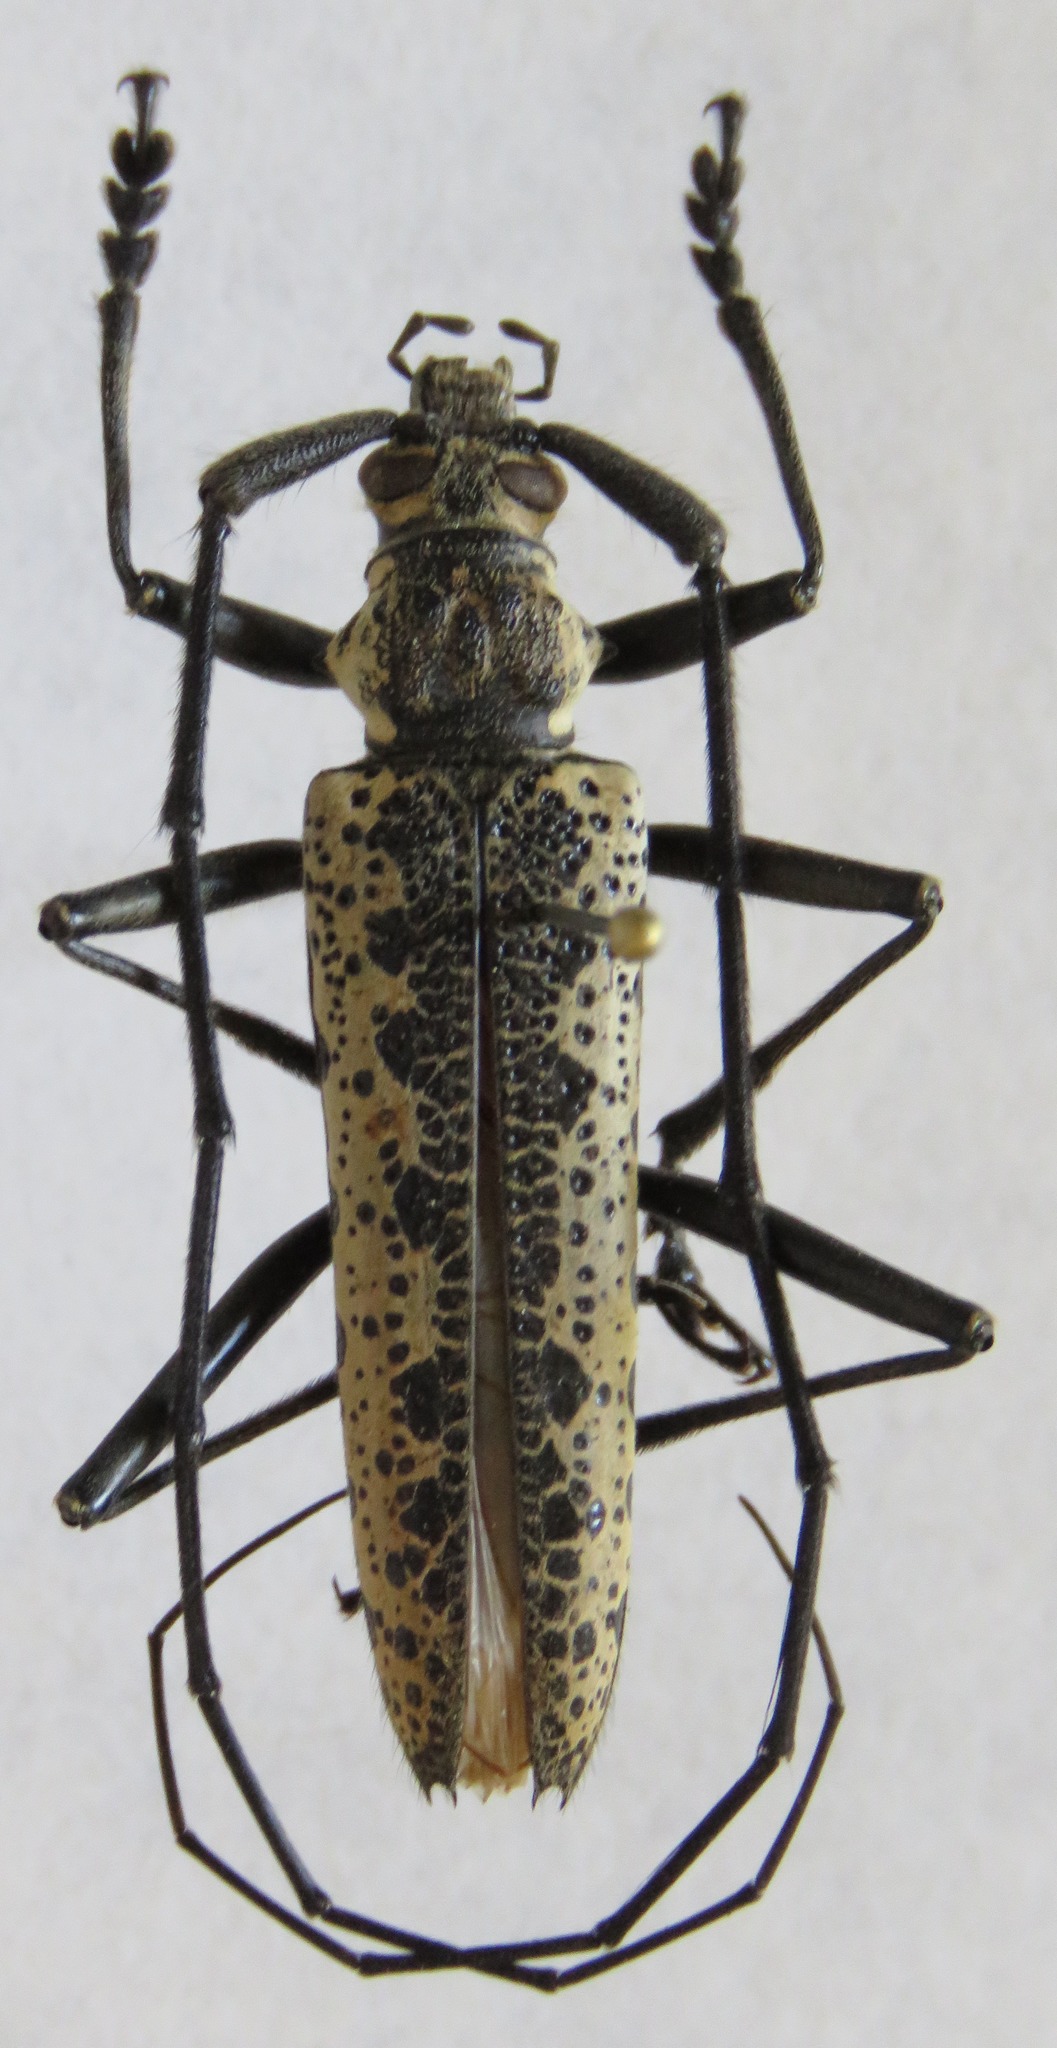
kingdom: Animalia
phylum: Arthropoda
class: Insecta
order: Coleoptera
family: Cerambycidae
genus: Disteniazteca
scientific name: Disteniazteca pilati
